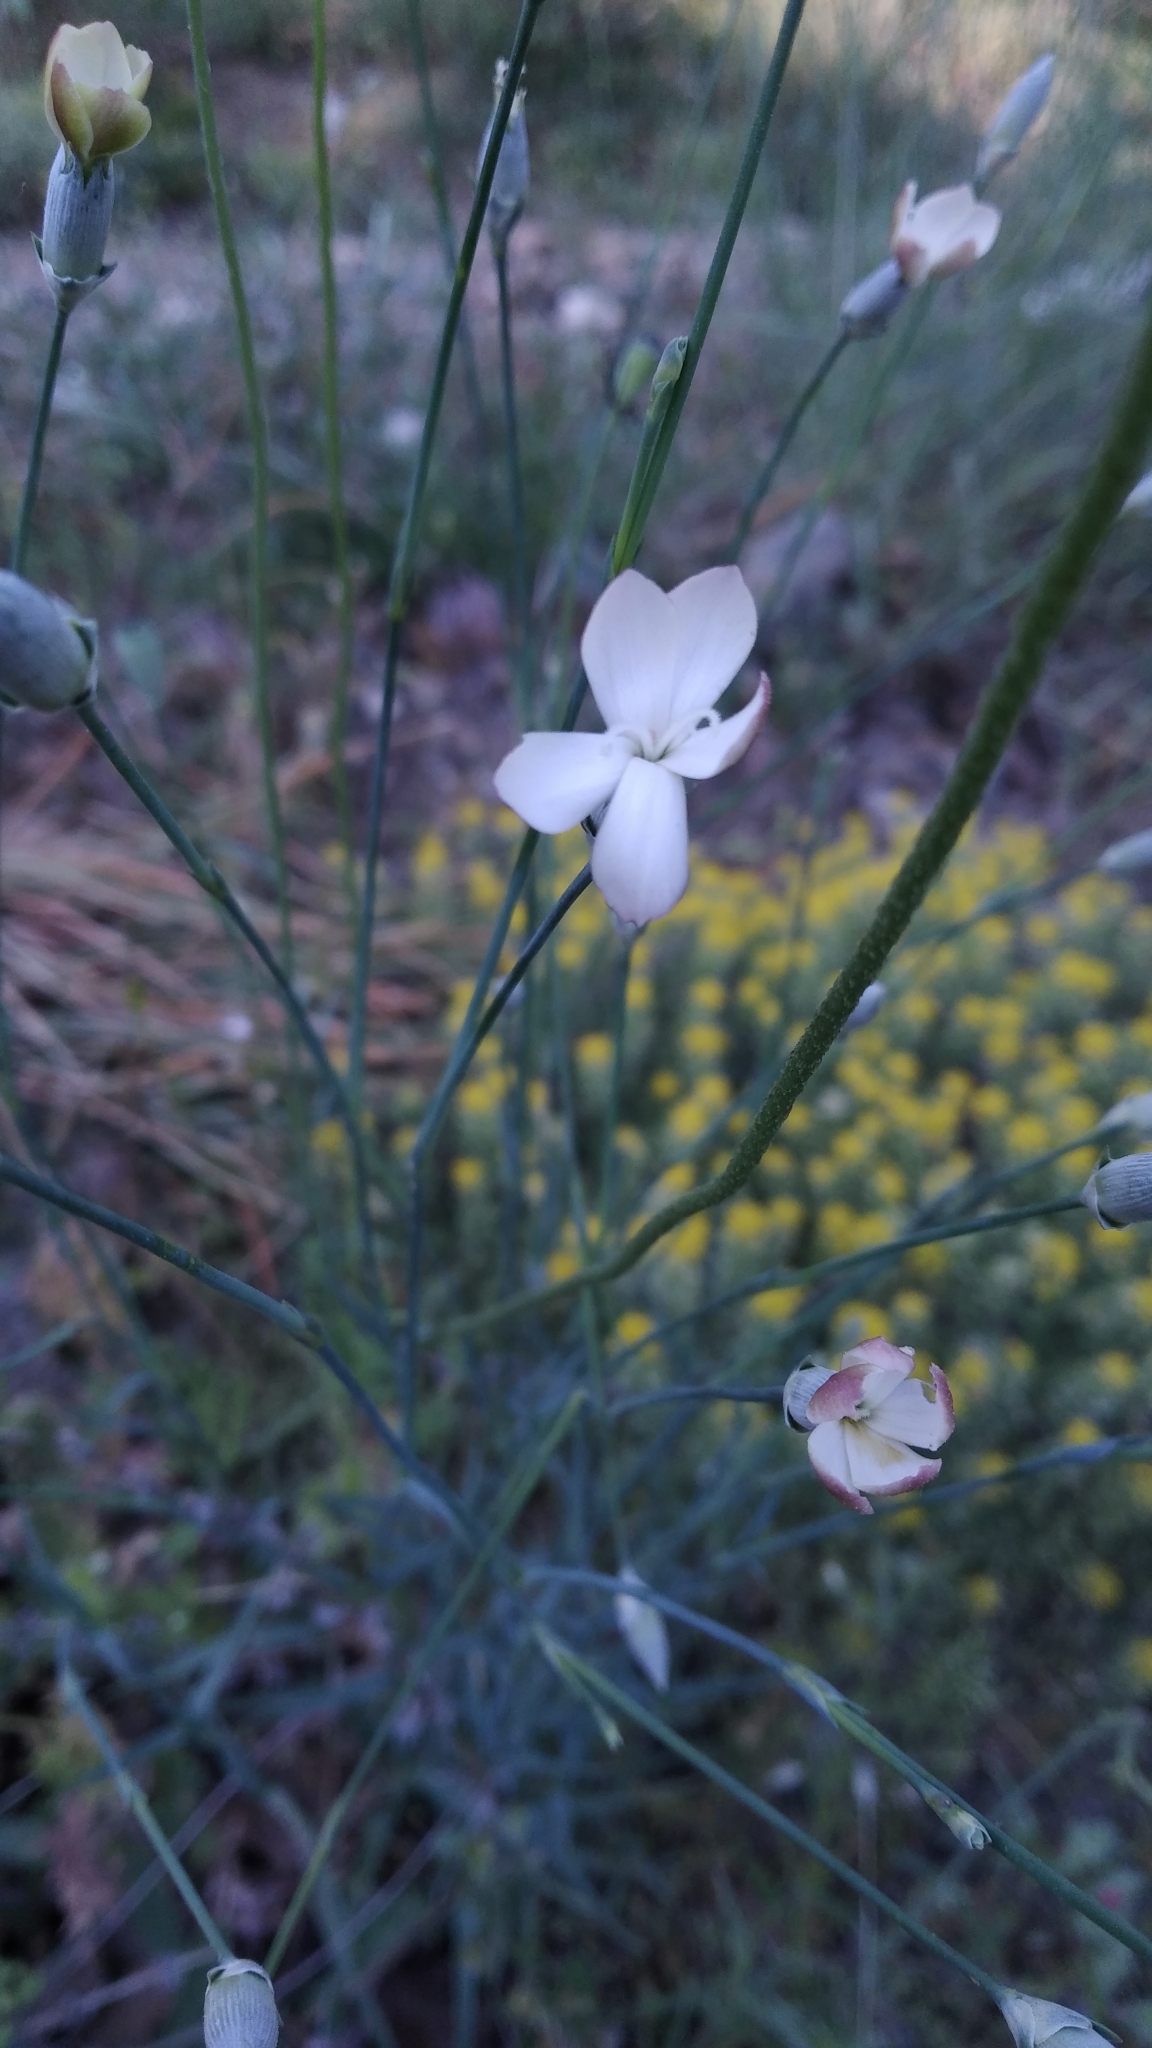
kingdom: Plantae
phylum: Tracheophyta
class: Magnoliopsida
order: Caryophyllales
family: Caryophyllaceae
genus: Dianthus
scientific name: Dianthus marschallii
